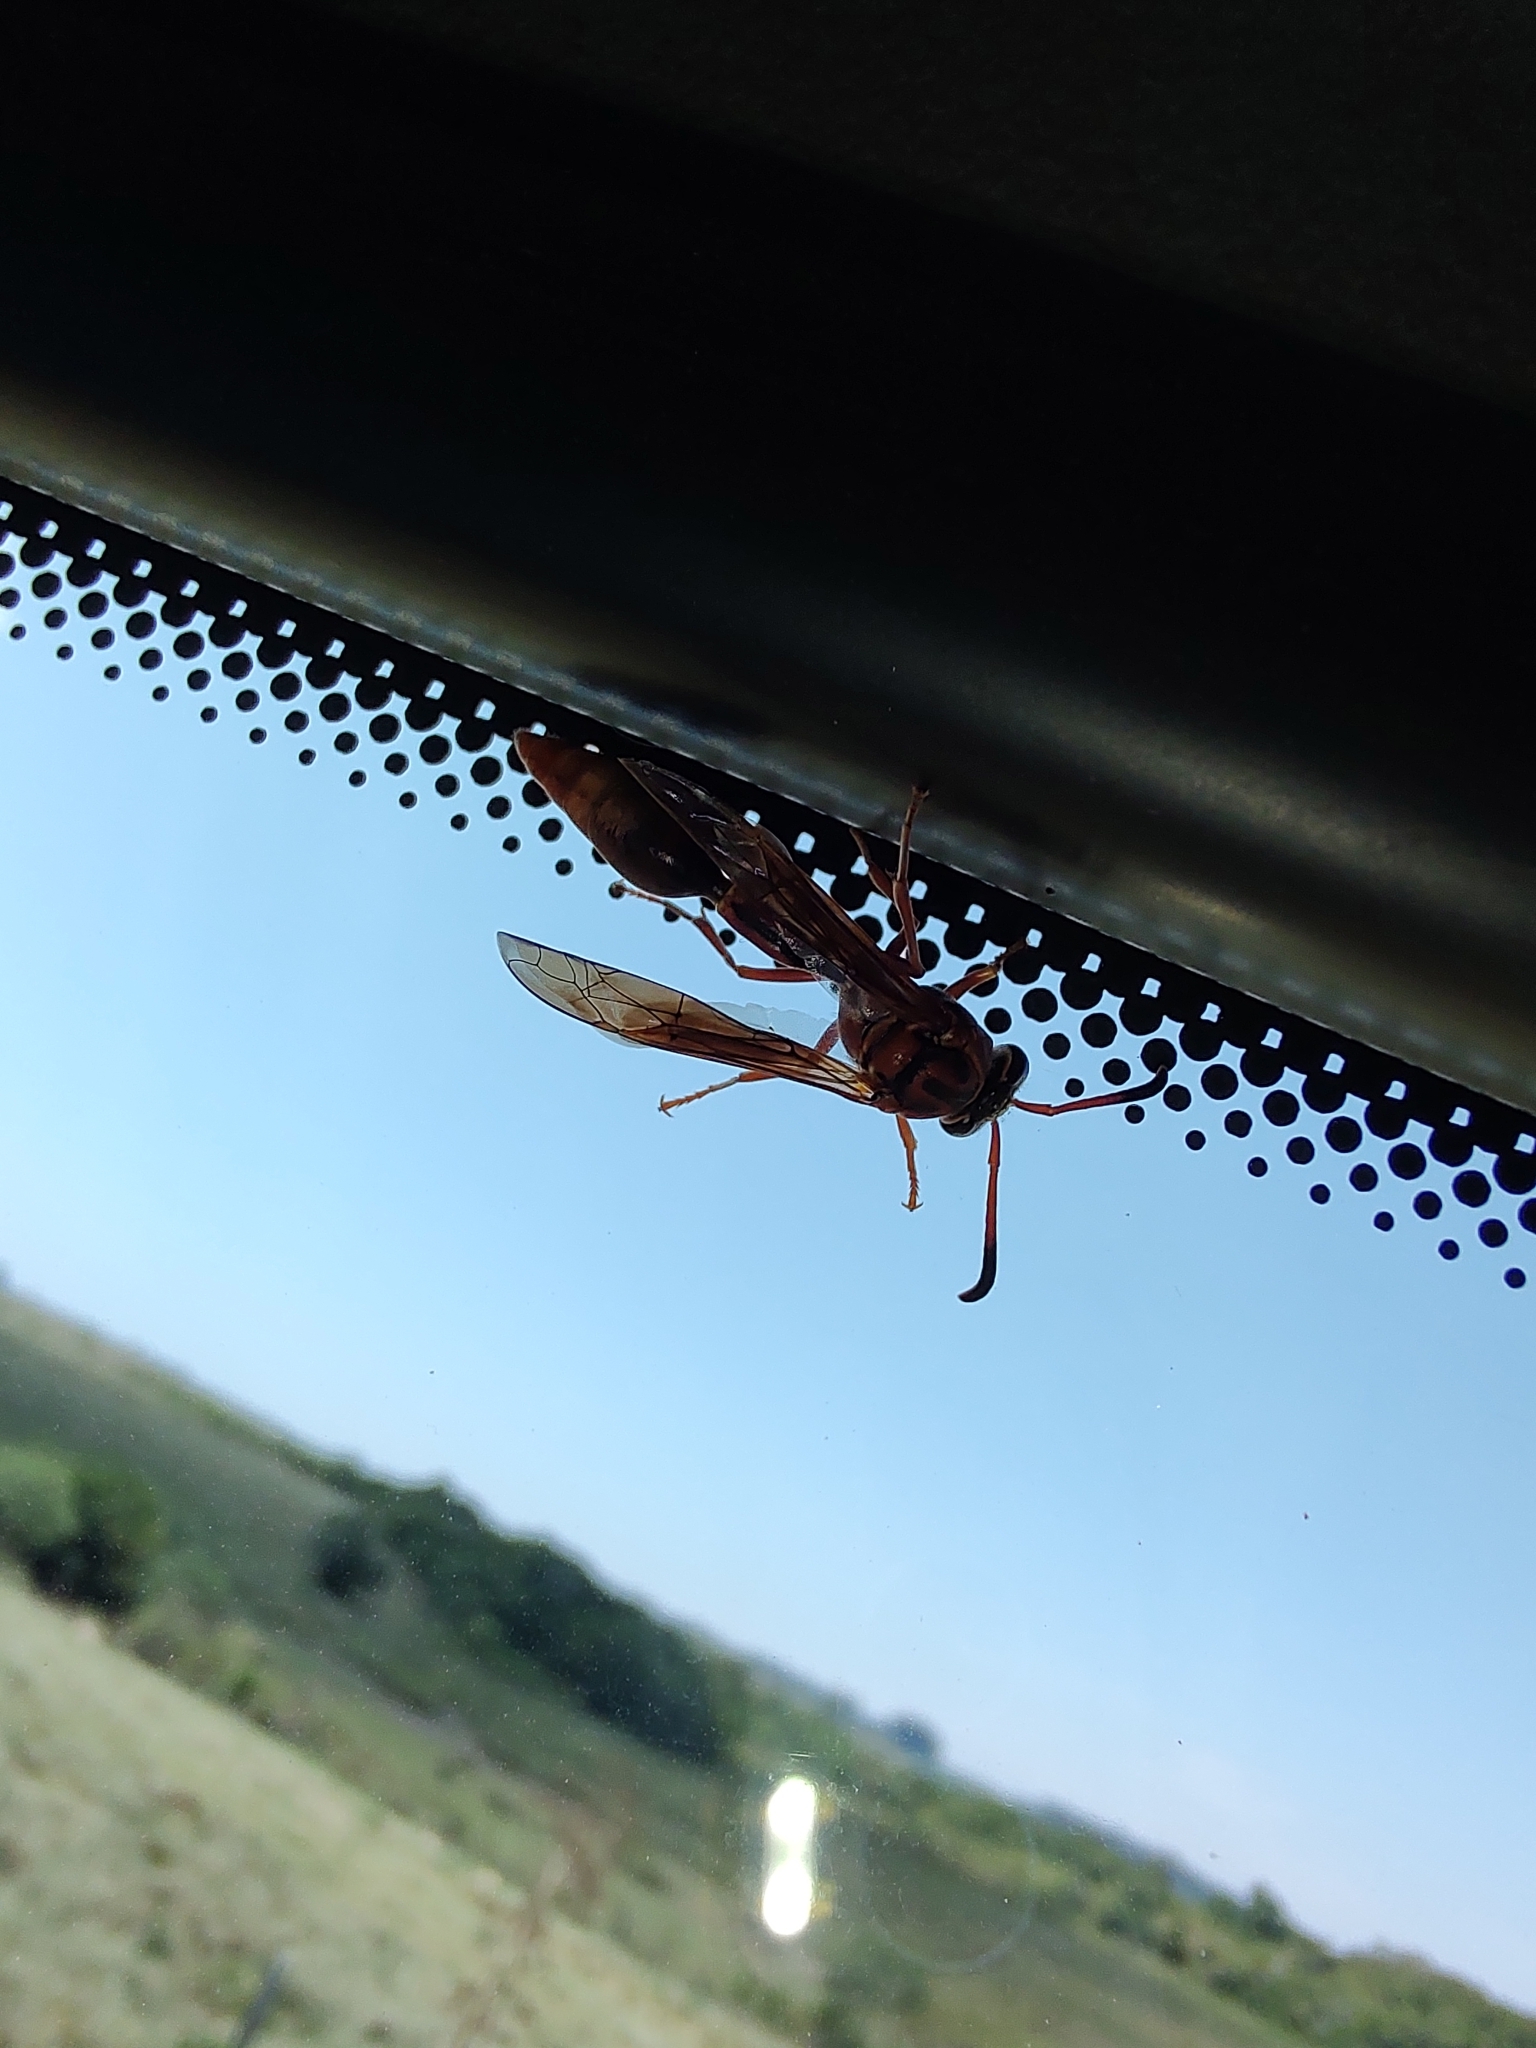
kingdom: Animalia
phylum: Arthropoda
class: Insecta
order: Hymenoptera
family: Eumenidae
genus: Zeta
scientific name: Zeta argillaceum
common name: Potter wasp
